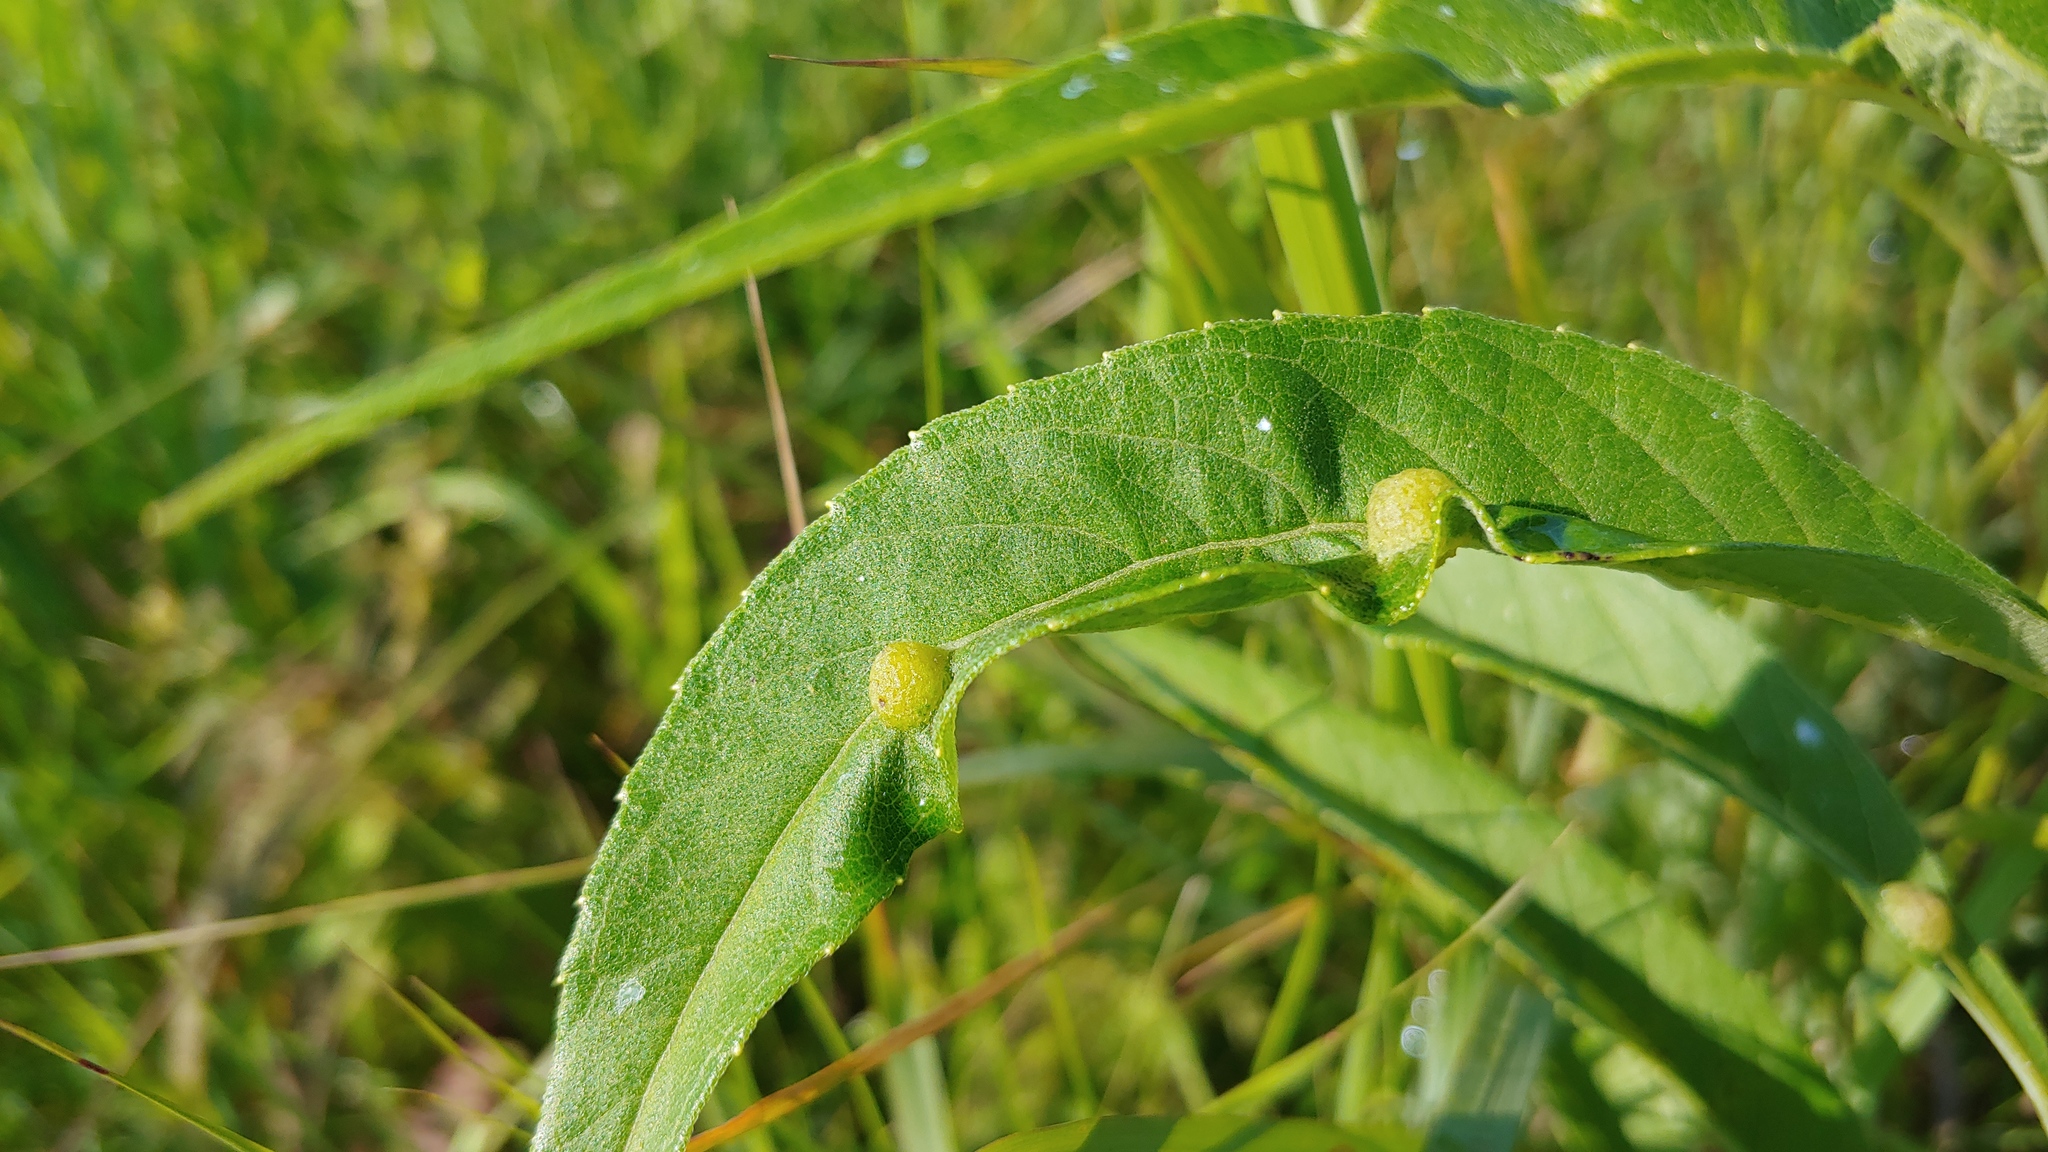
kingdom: Animalia
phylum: Arthropoda
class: Insecta
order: Diptera
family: Cecidomyiidae
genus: Pilodiplosis
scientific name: Pilodiplosis helianthibulla
